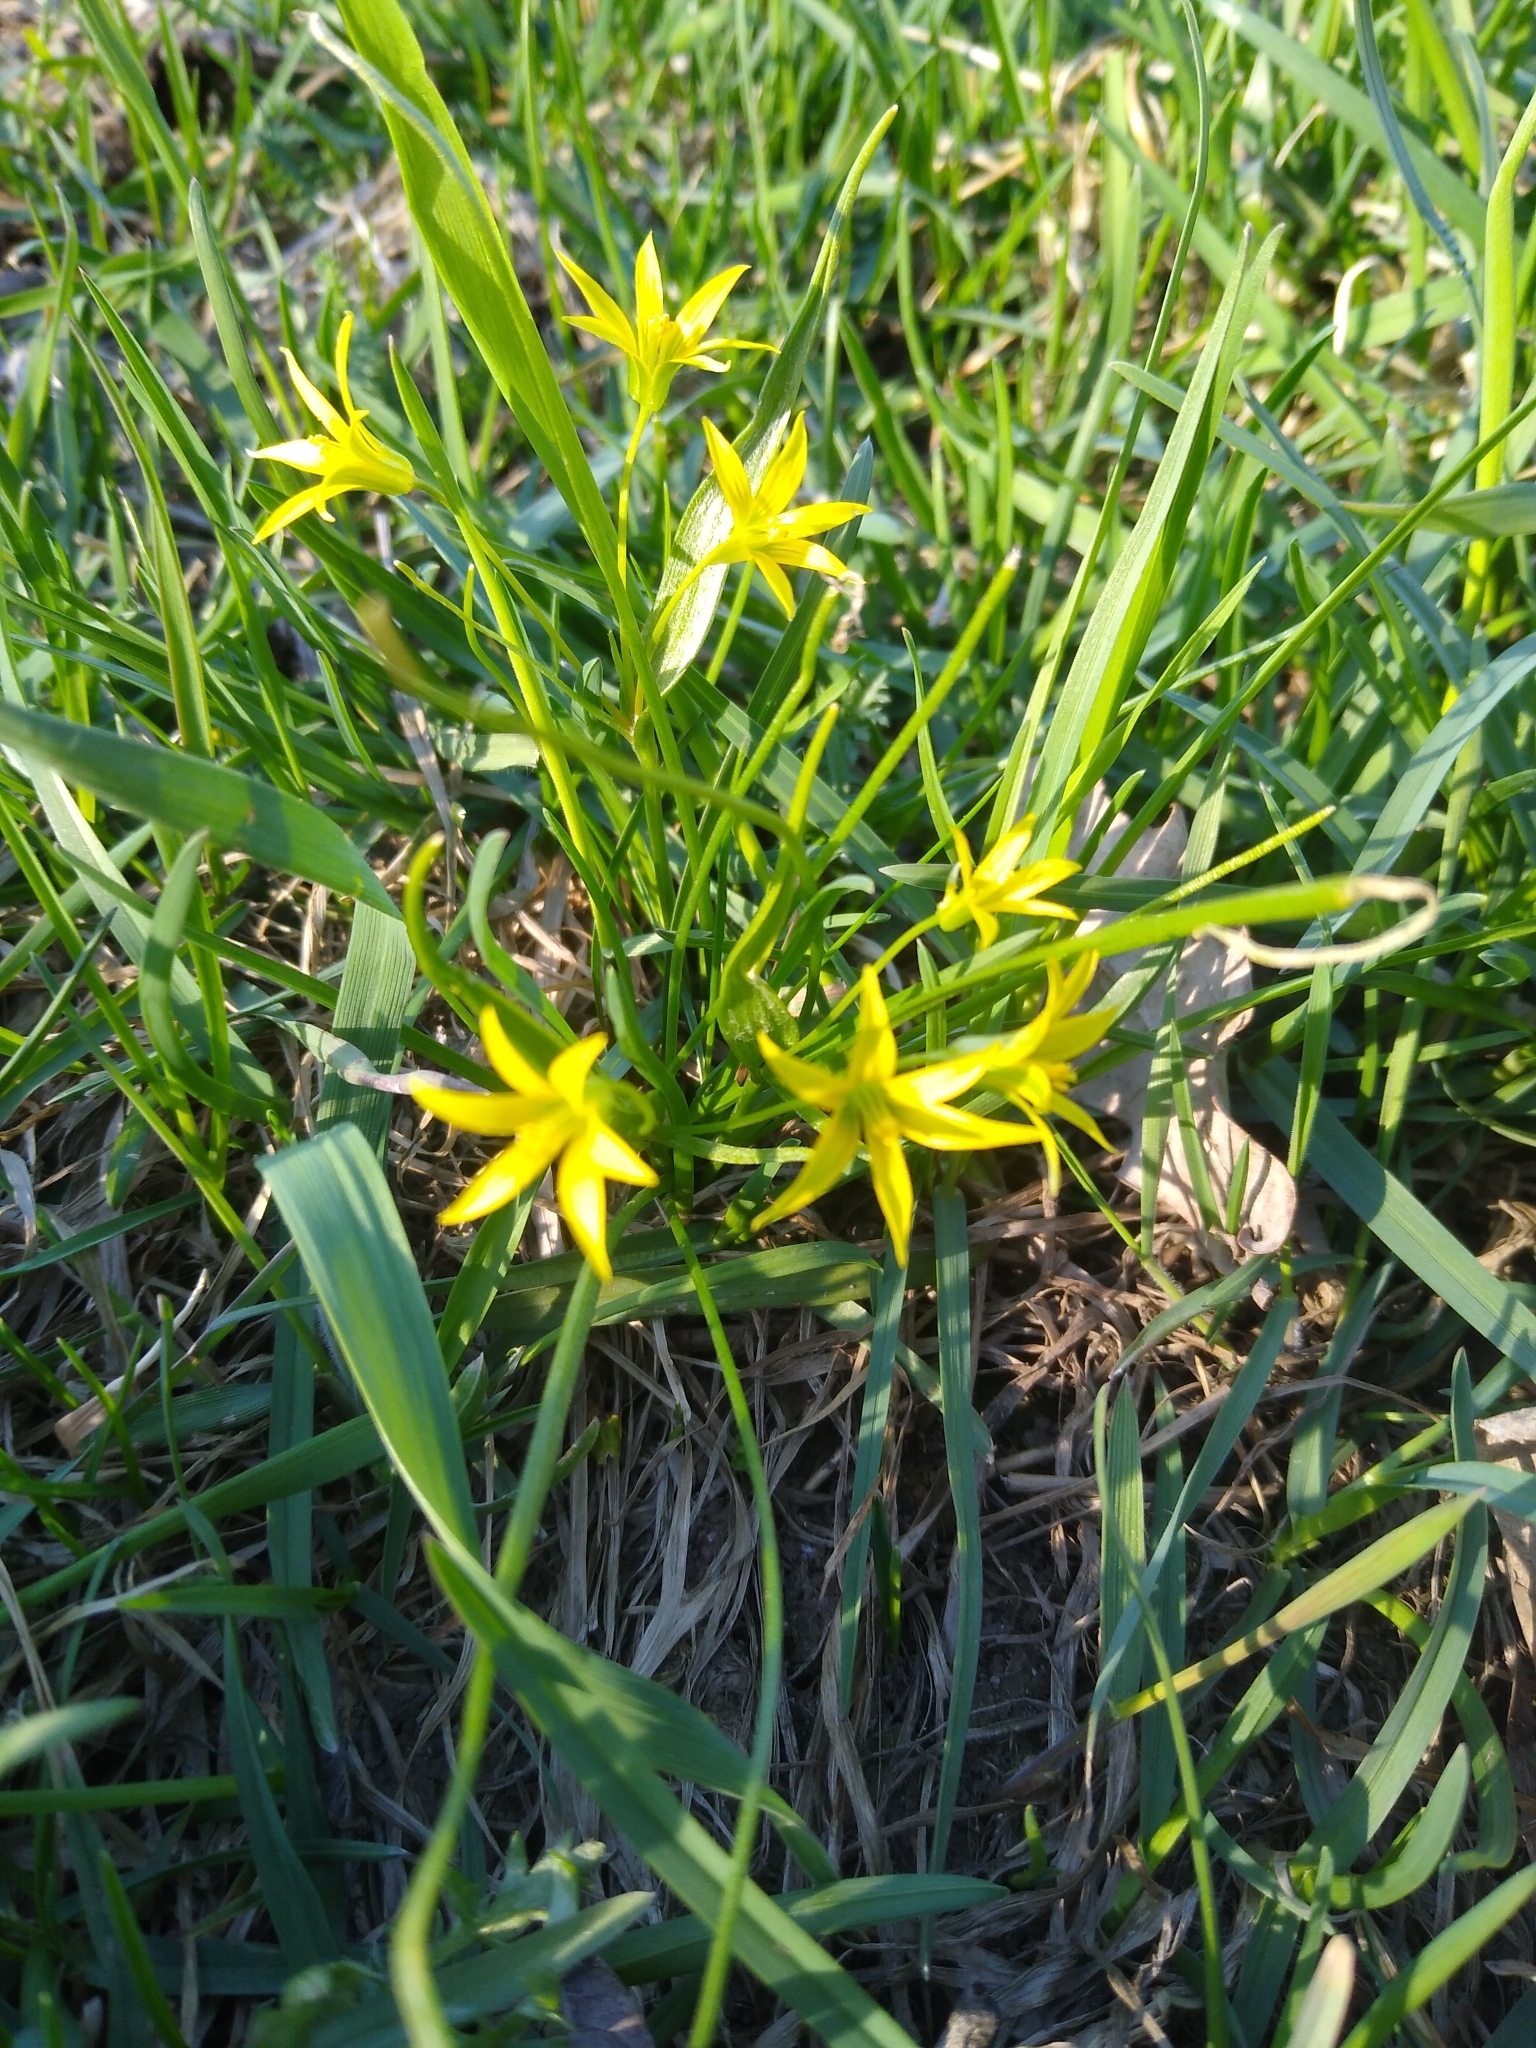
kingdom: Plantae
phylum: Tracheophyta
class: Liliopsida
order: Liliales
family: Liliaceae
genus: Gagea
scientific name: Gagea minima
